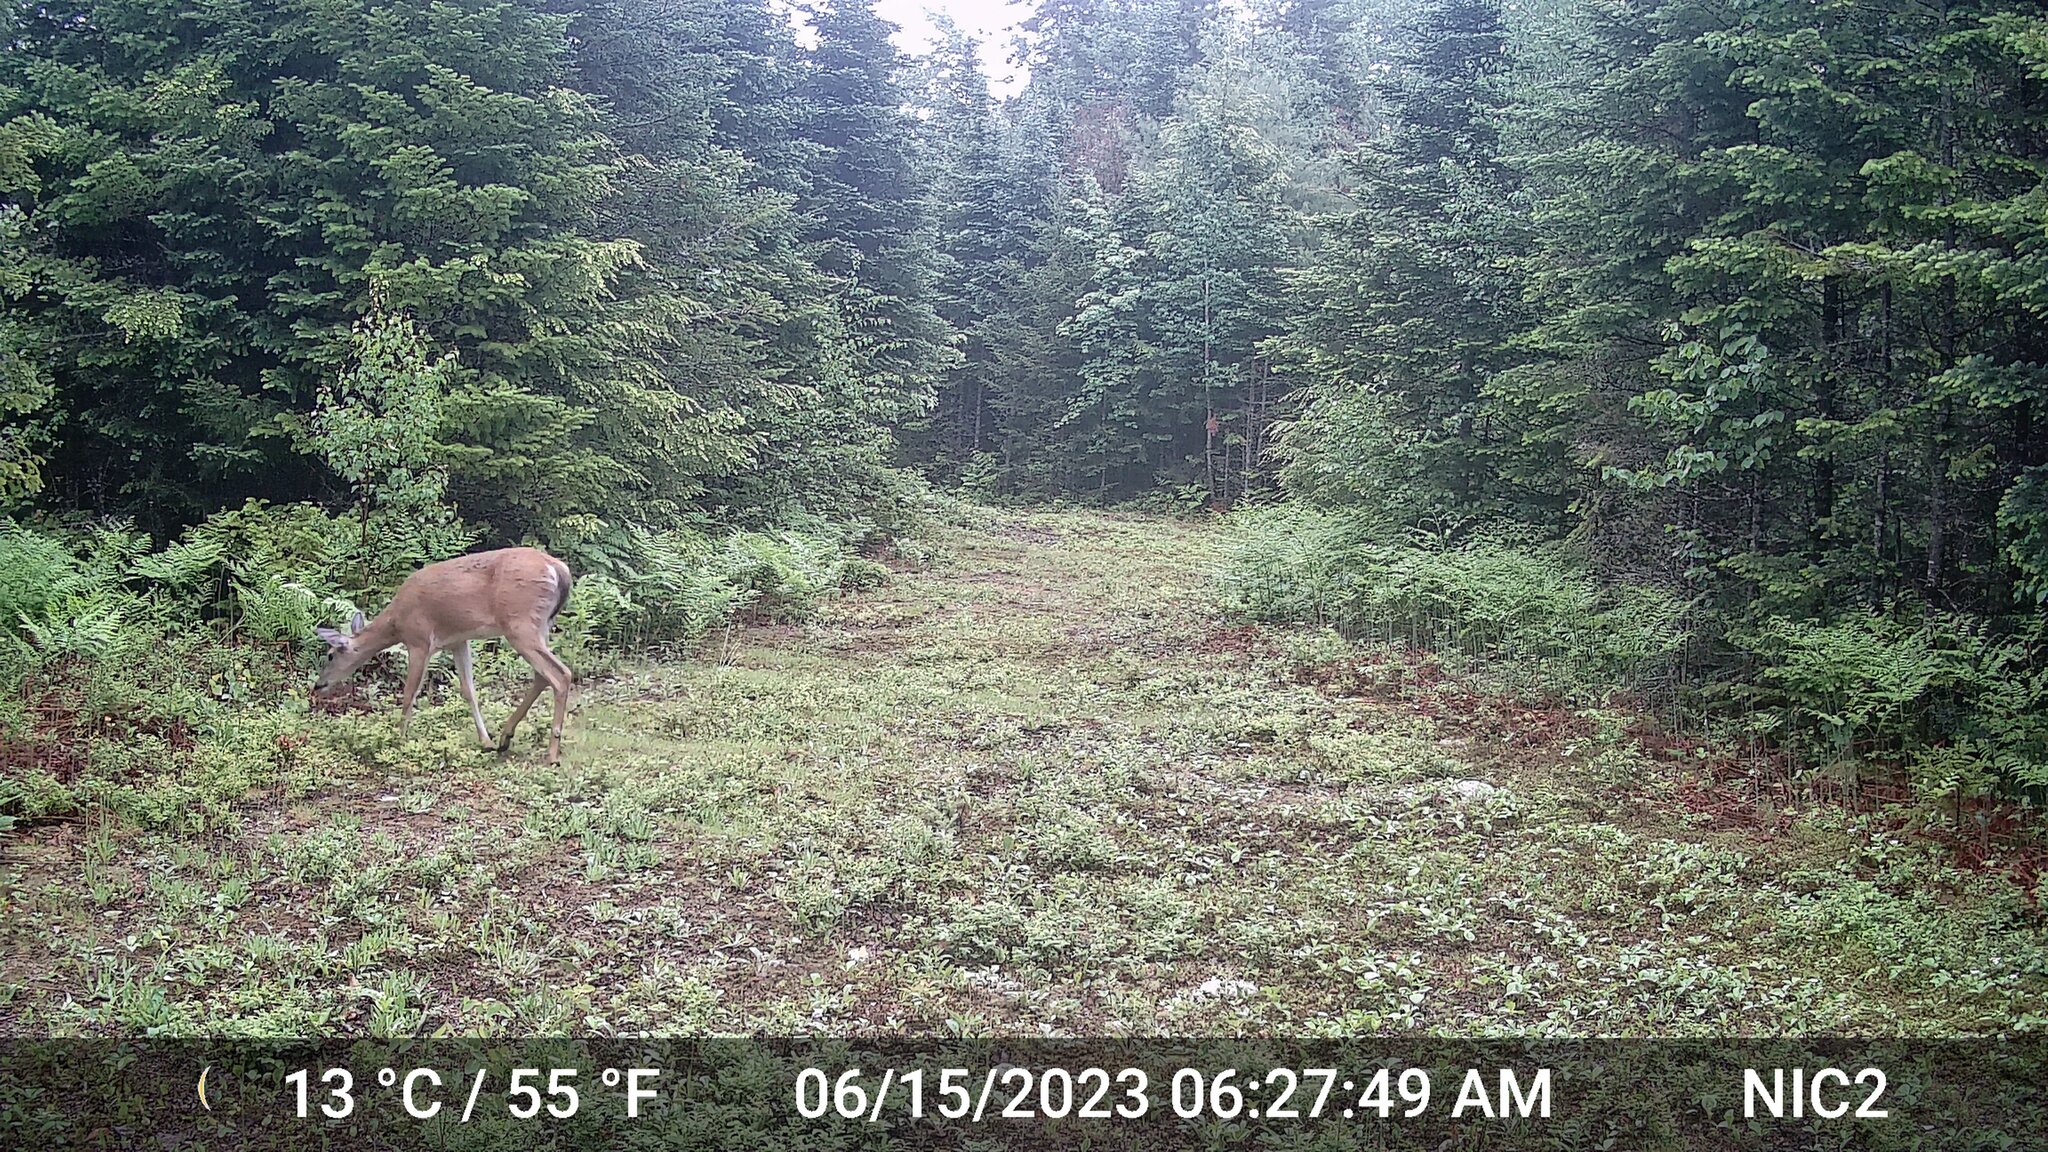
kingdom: Animalia
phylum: Chordata
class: Mammalia
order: Artiodactyla
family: Cervidae
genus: Odocoileus
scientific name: Odocoileus virginianus
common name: White-tailed deer
